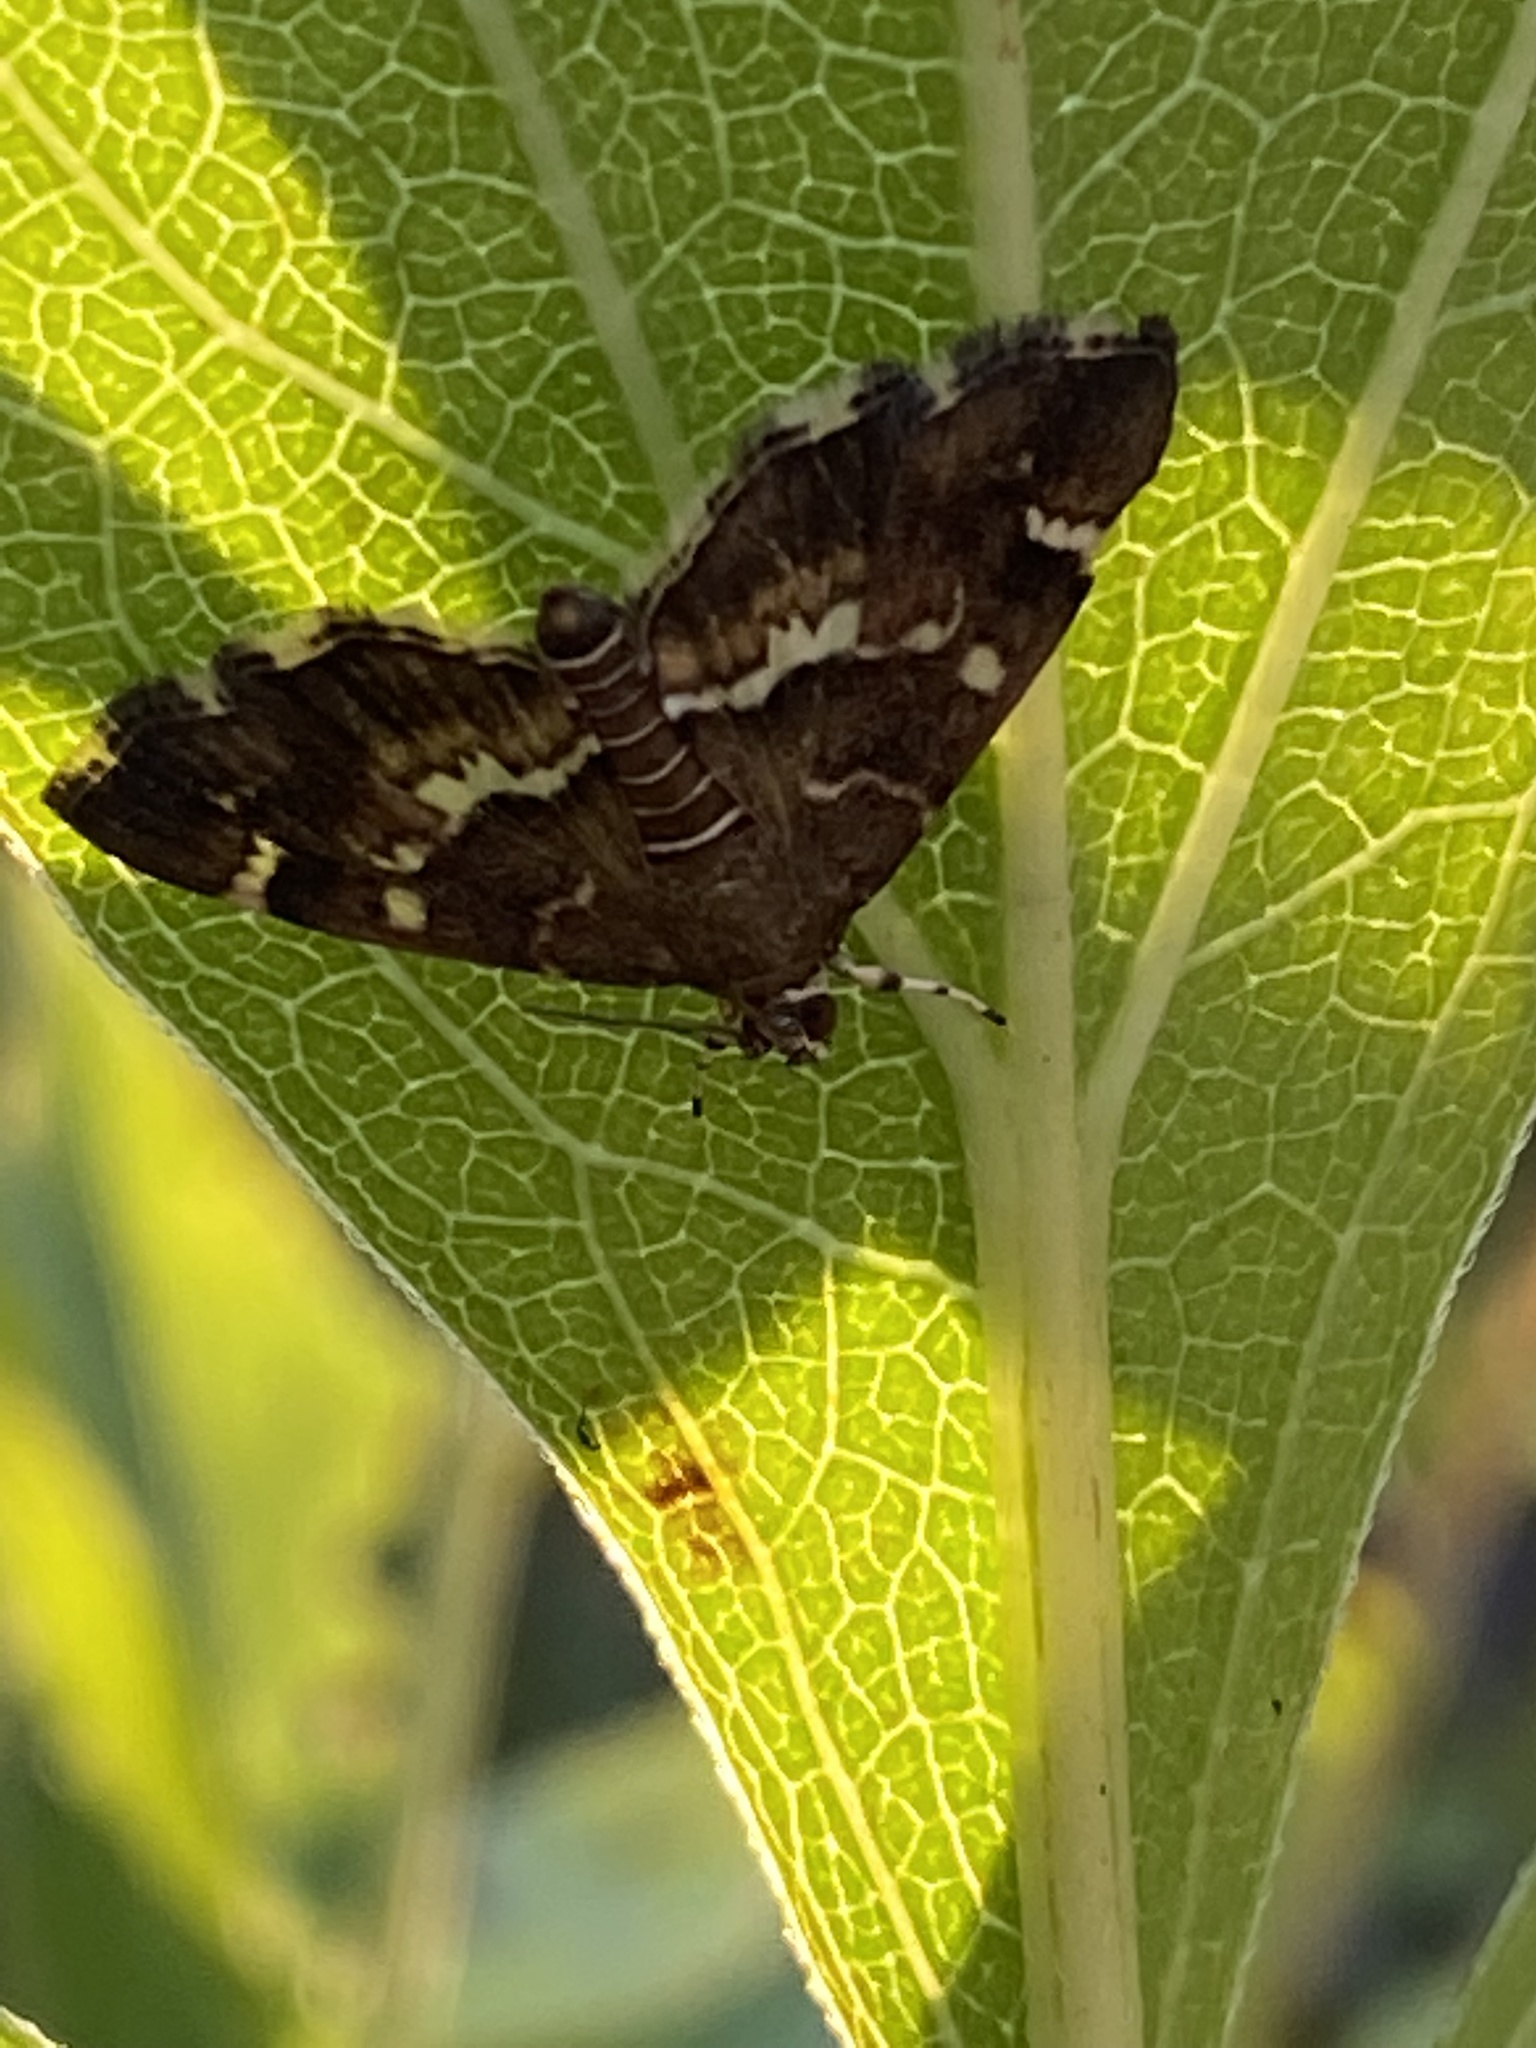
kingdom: Animalia
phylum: Arthropoda
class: Insecta
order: Lepidoptera
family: Crambidae
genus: Hymenia
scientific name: Hymenia perspectalis
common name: Spotted beet webworm
